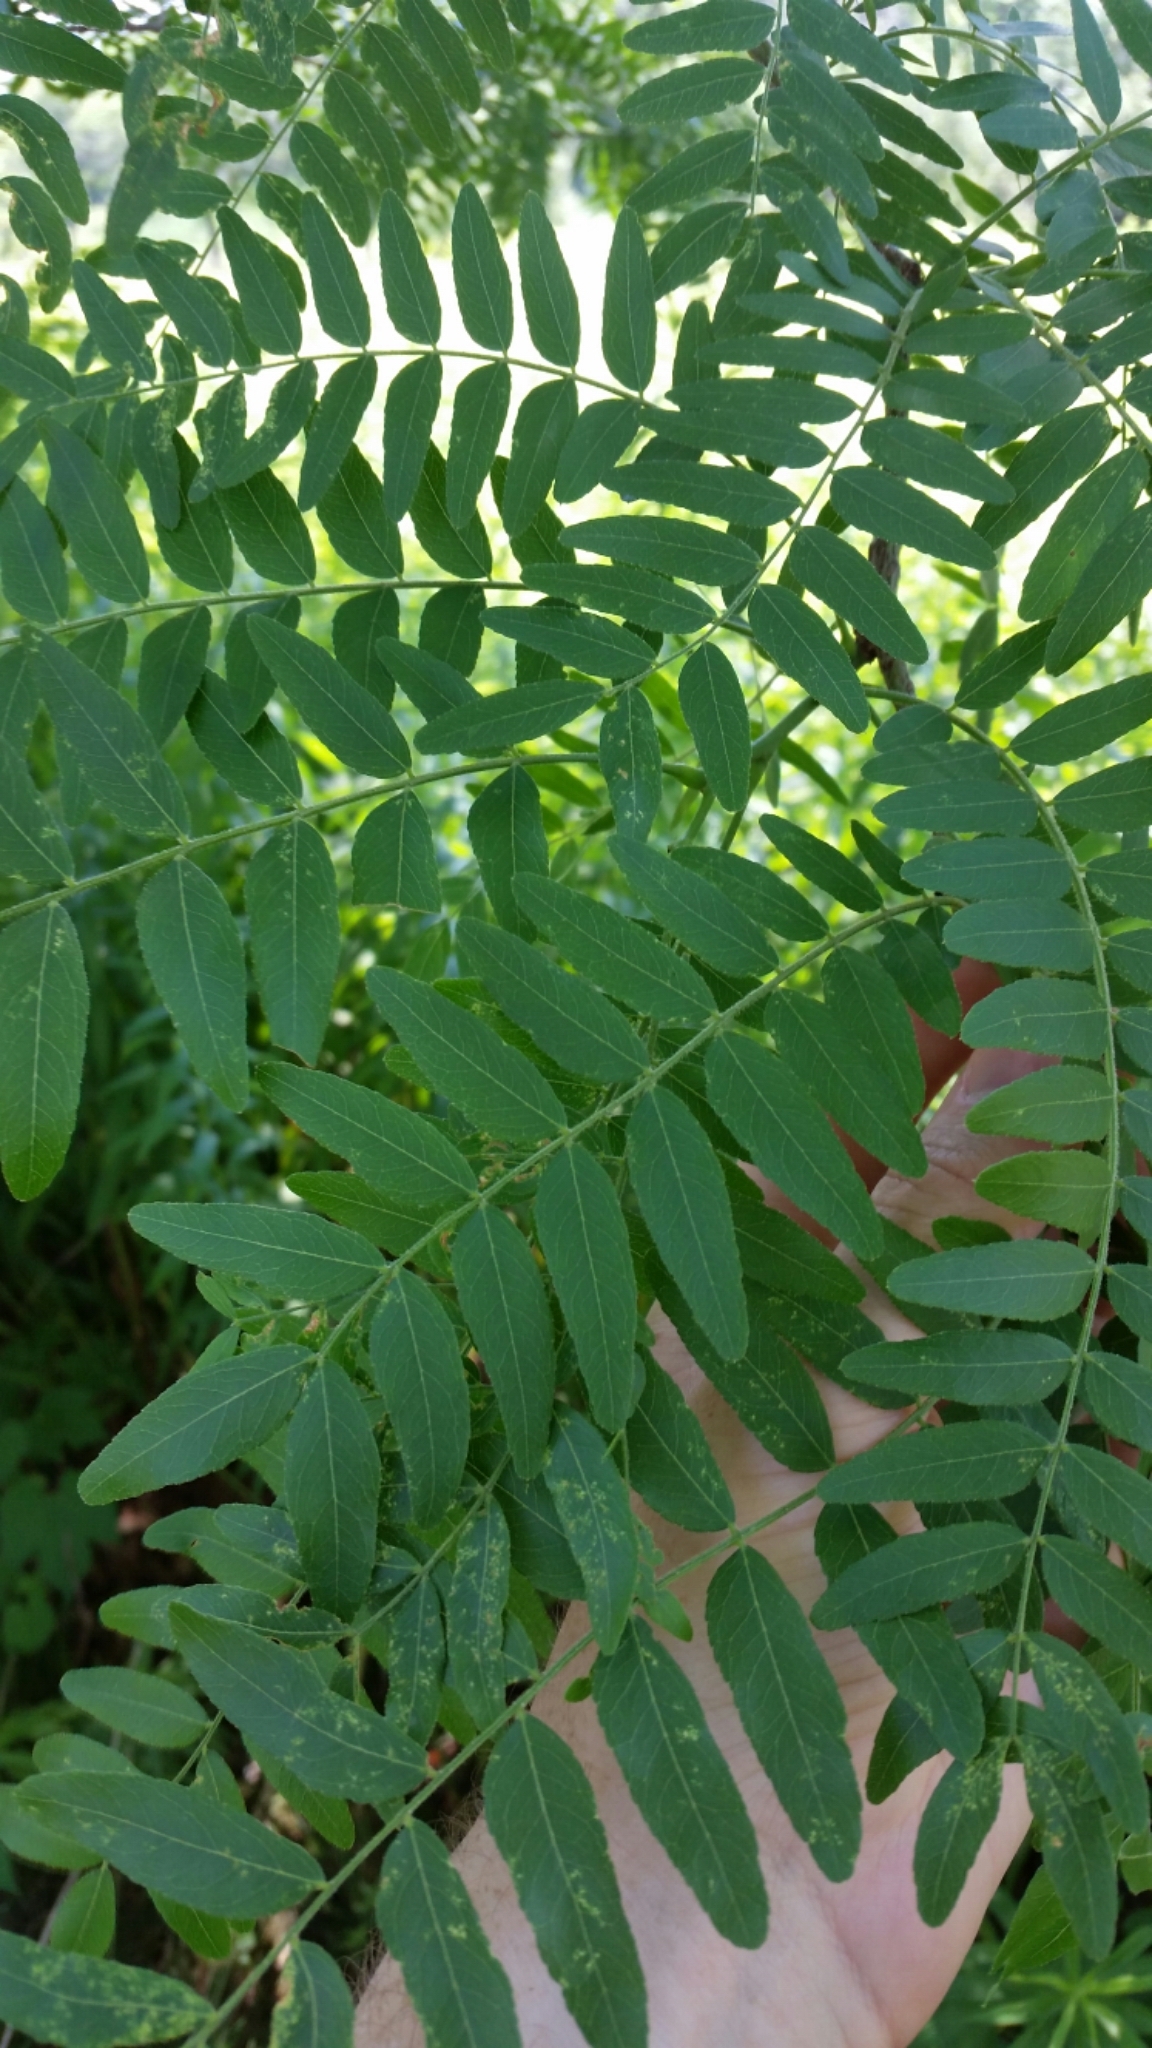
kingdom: Plantae
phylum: Tracheophyta
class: Magnoliopsida
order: Fabales
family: Fabaceae
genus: Gleditsia
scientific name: Gleditsia triacanthos
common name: Common honeylocust
